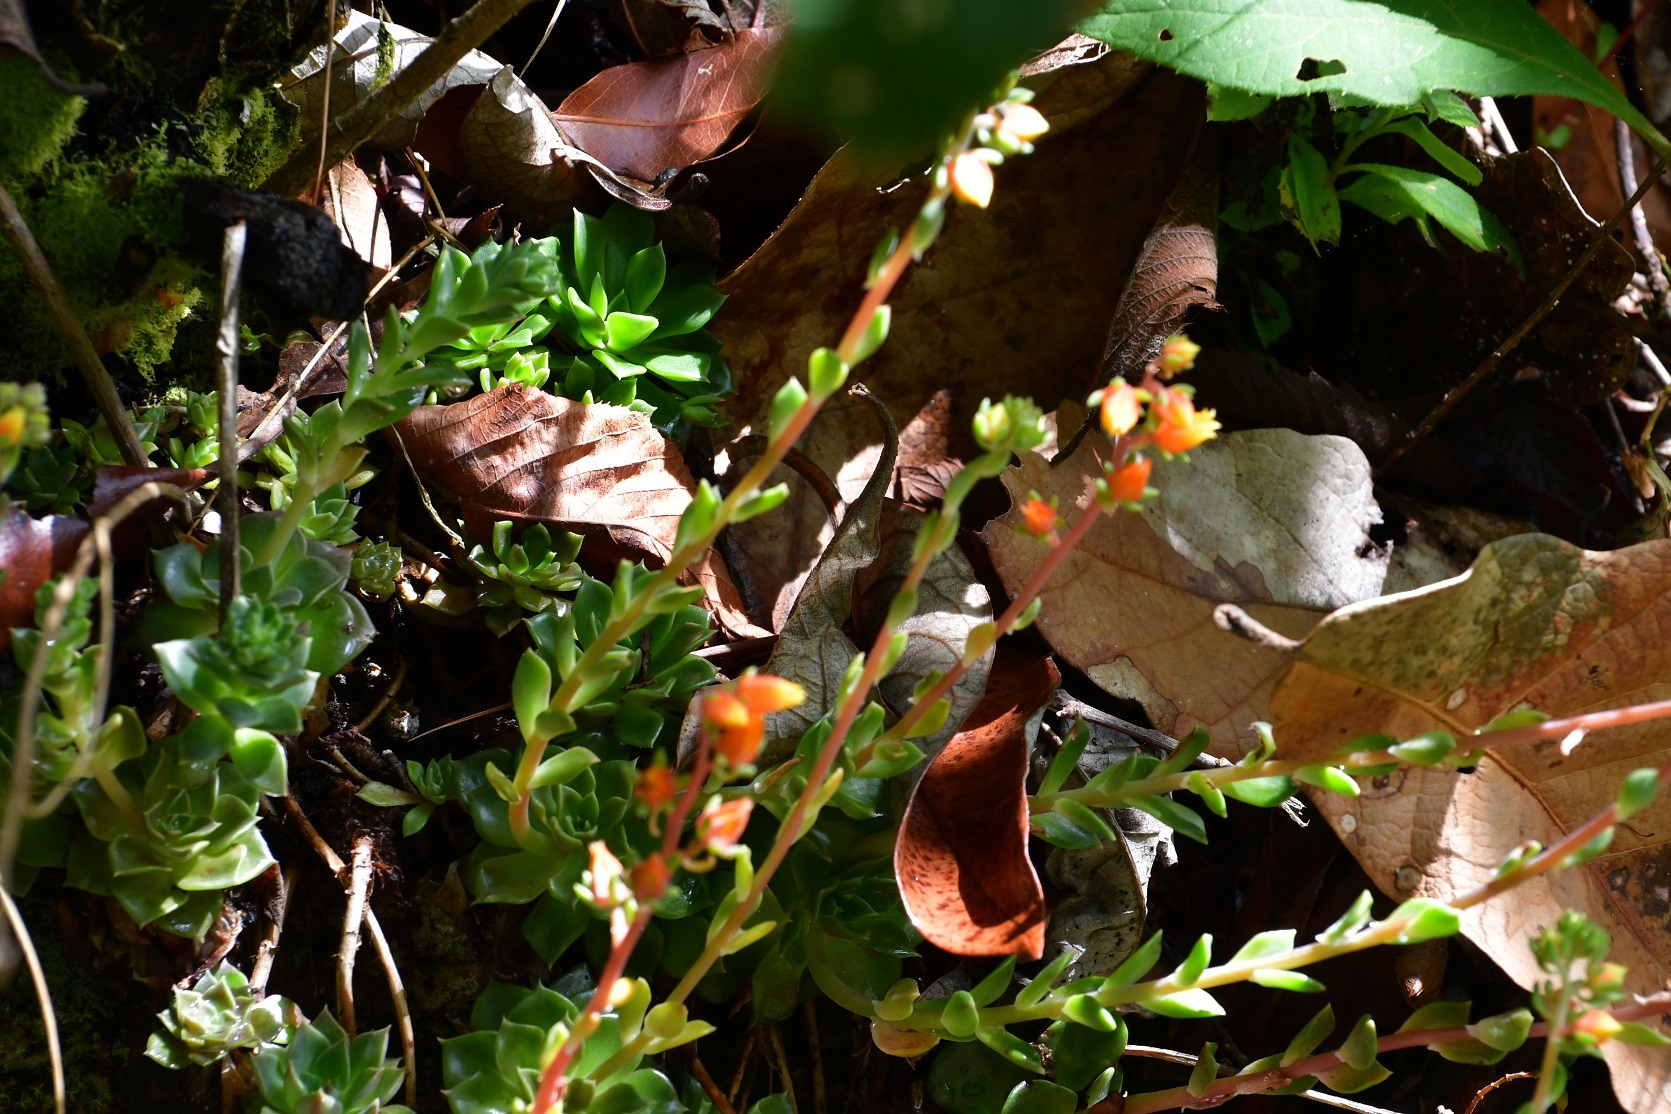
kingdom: Plantae
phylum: Tracheophyta
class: Magnoliopsida
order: Saxifragales
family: Crassulaceae
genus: Echeveria
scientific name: Echeveria bella
